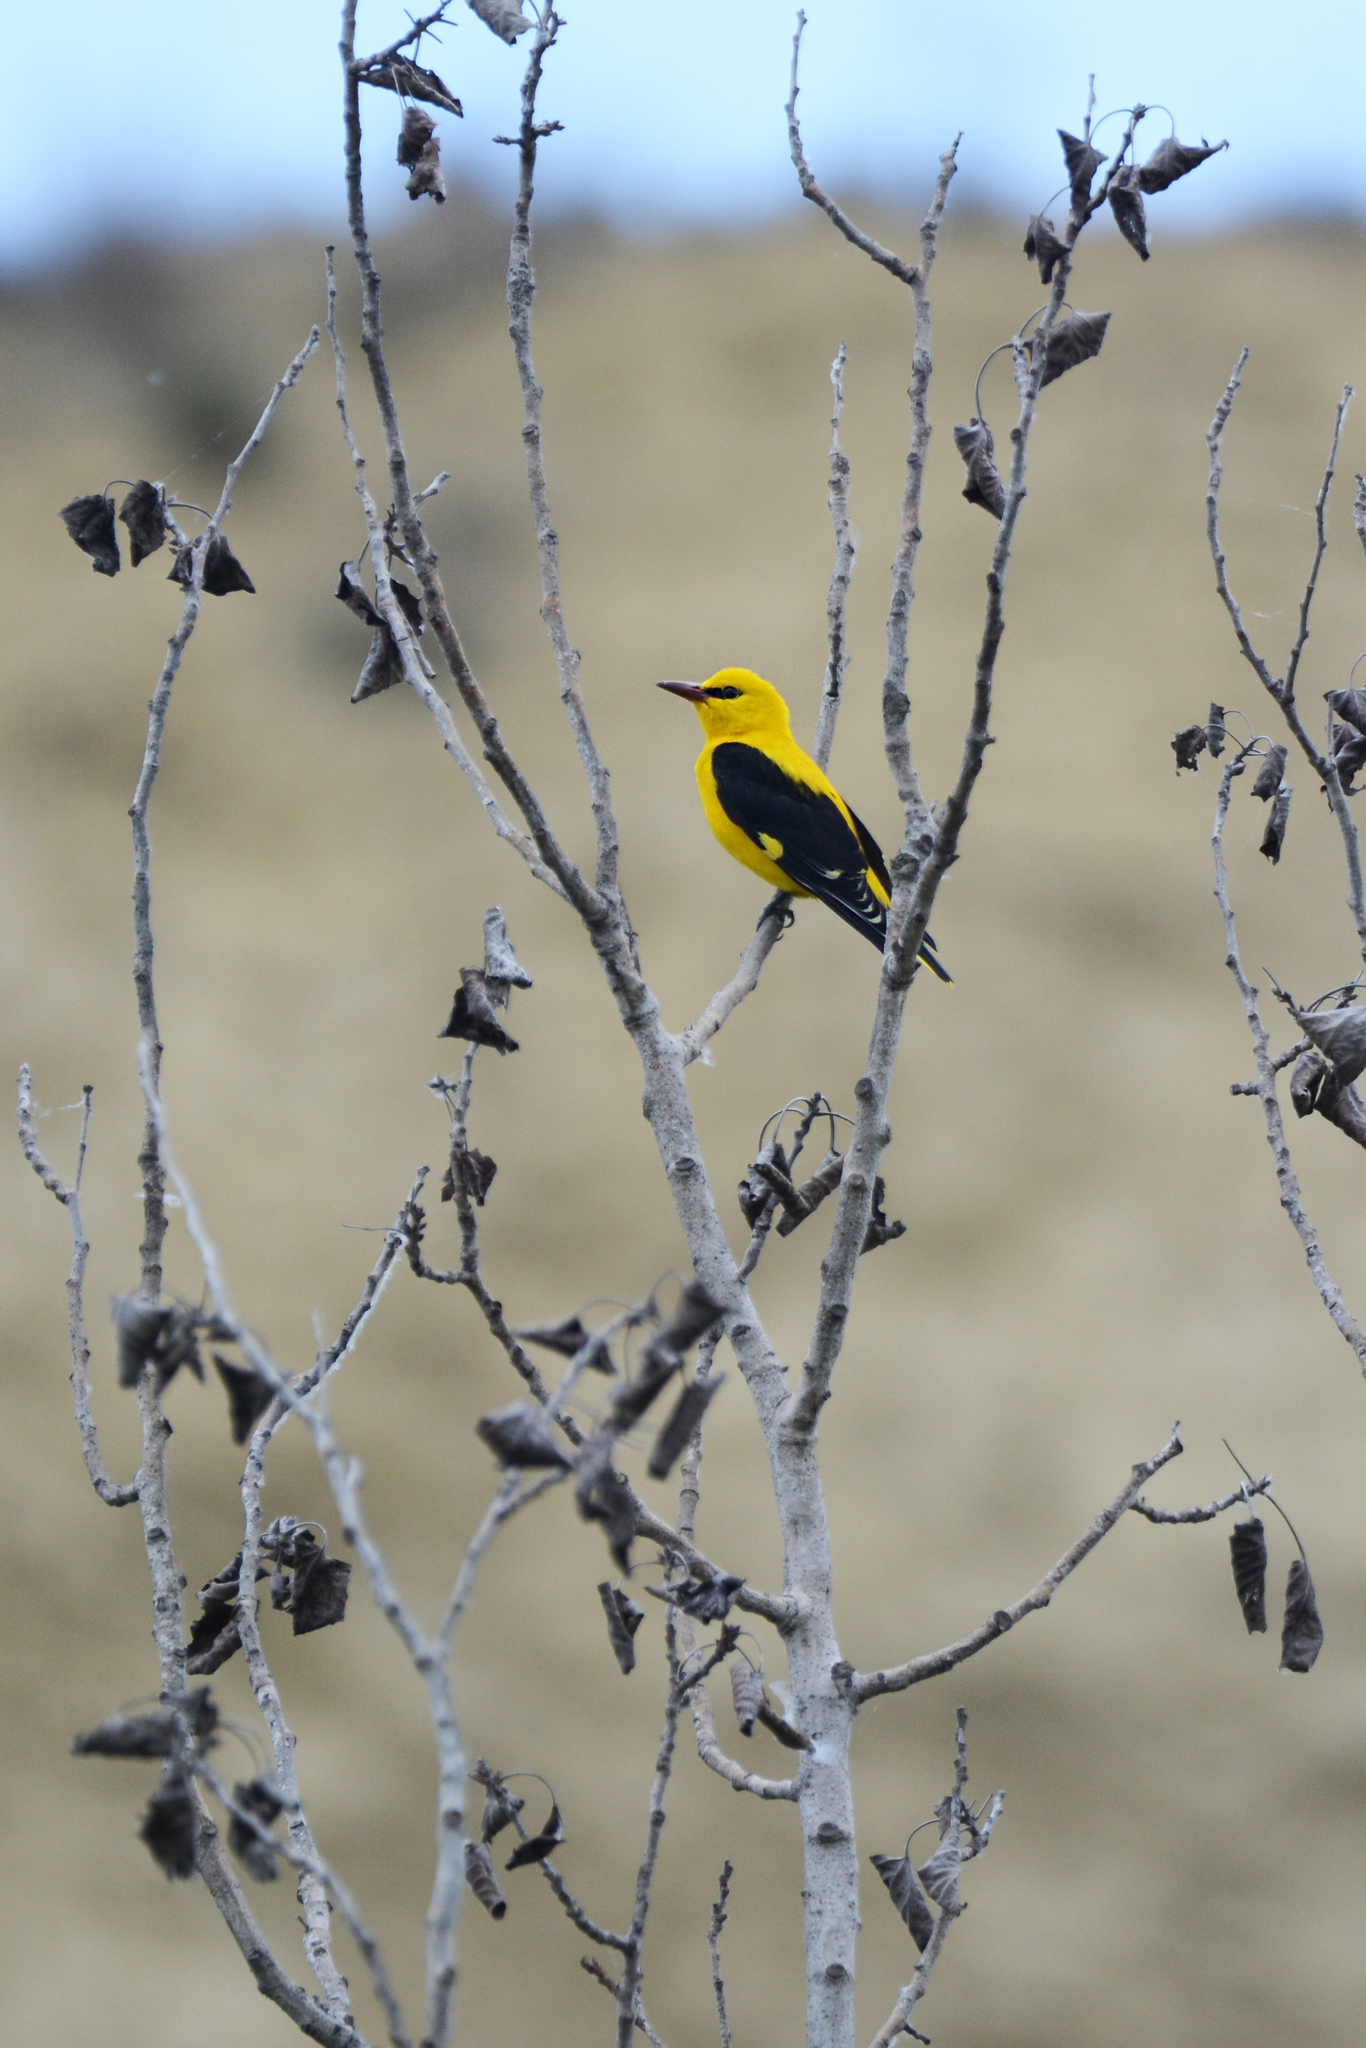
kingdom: Animalia
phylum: Chordata
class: Aves
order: Passeriformes
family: Oriolidae
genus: Oriolus
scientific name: Oriolus oriolus
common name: Eurasian golden oriole
